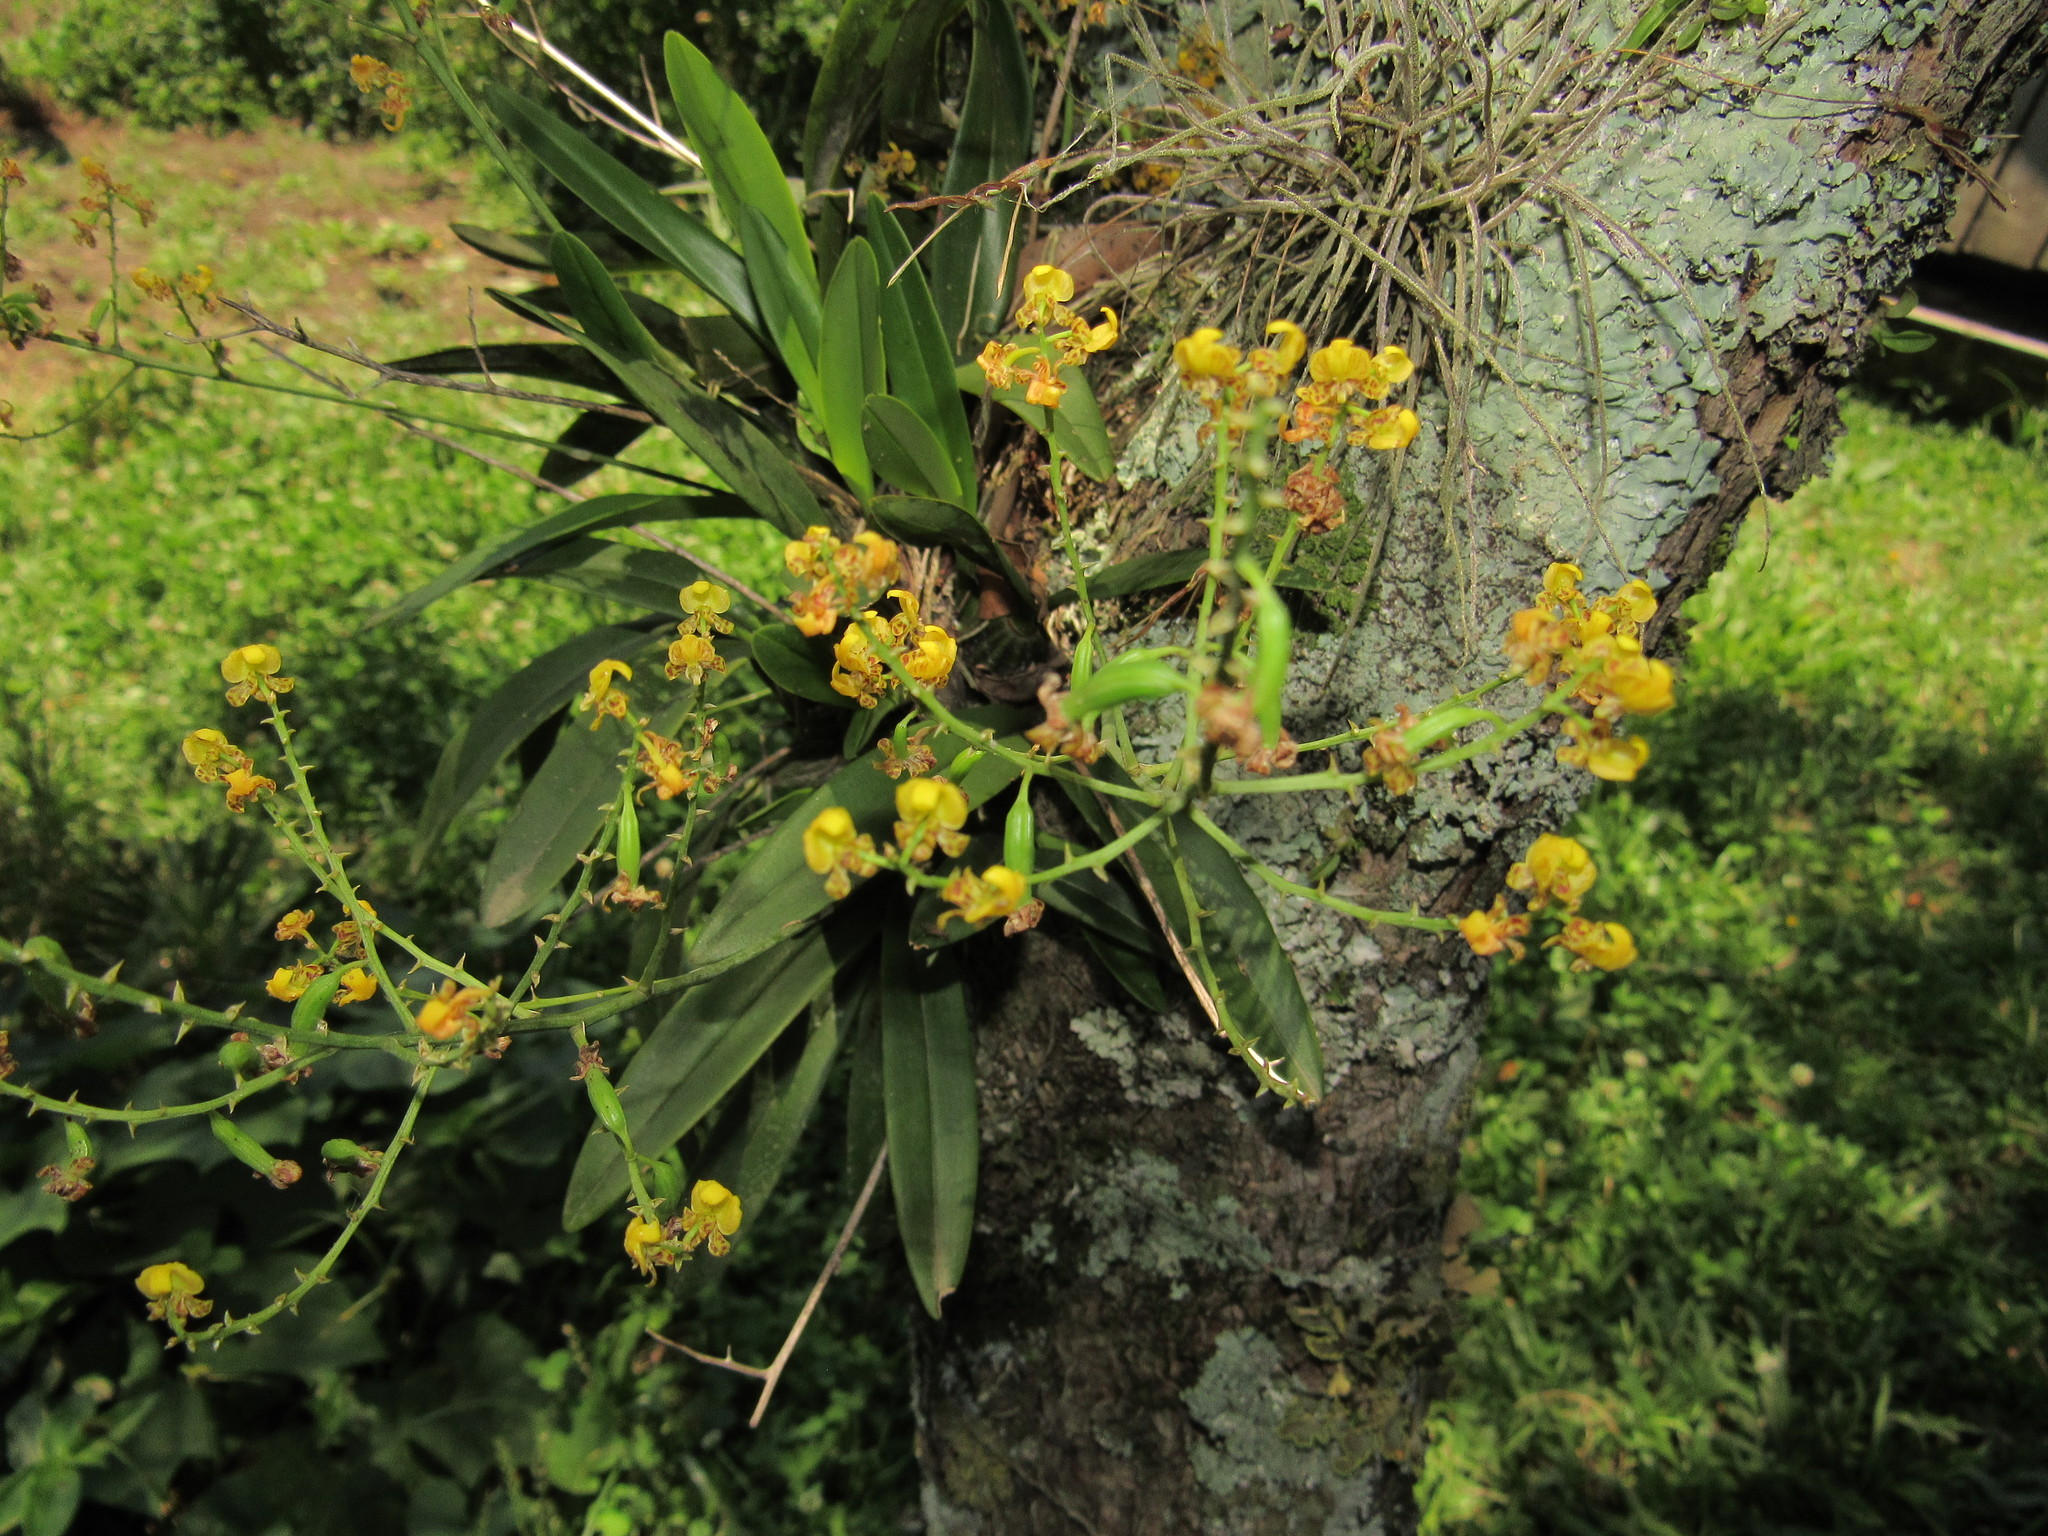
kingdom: Plantae
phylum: Tracheophyta
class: Liliopsida
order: Asparagales
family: Orchidaceae
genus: Gomesa
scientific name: Gomesa paranensoides
